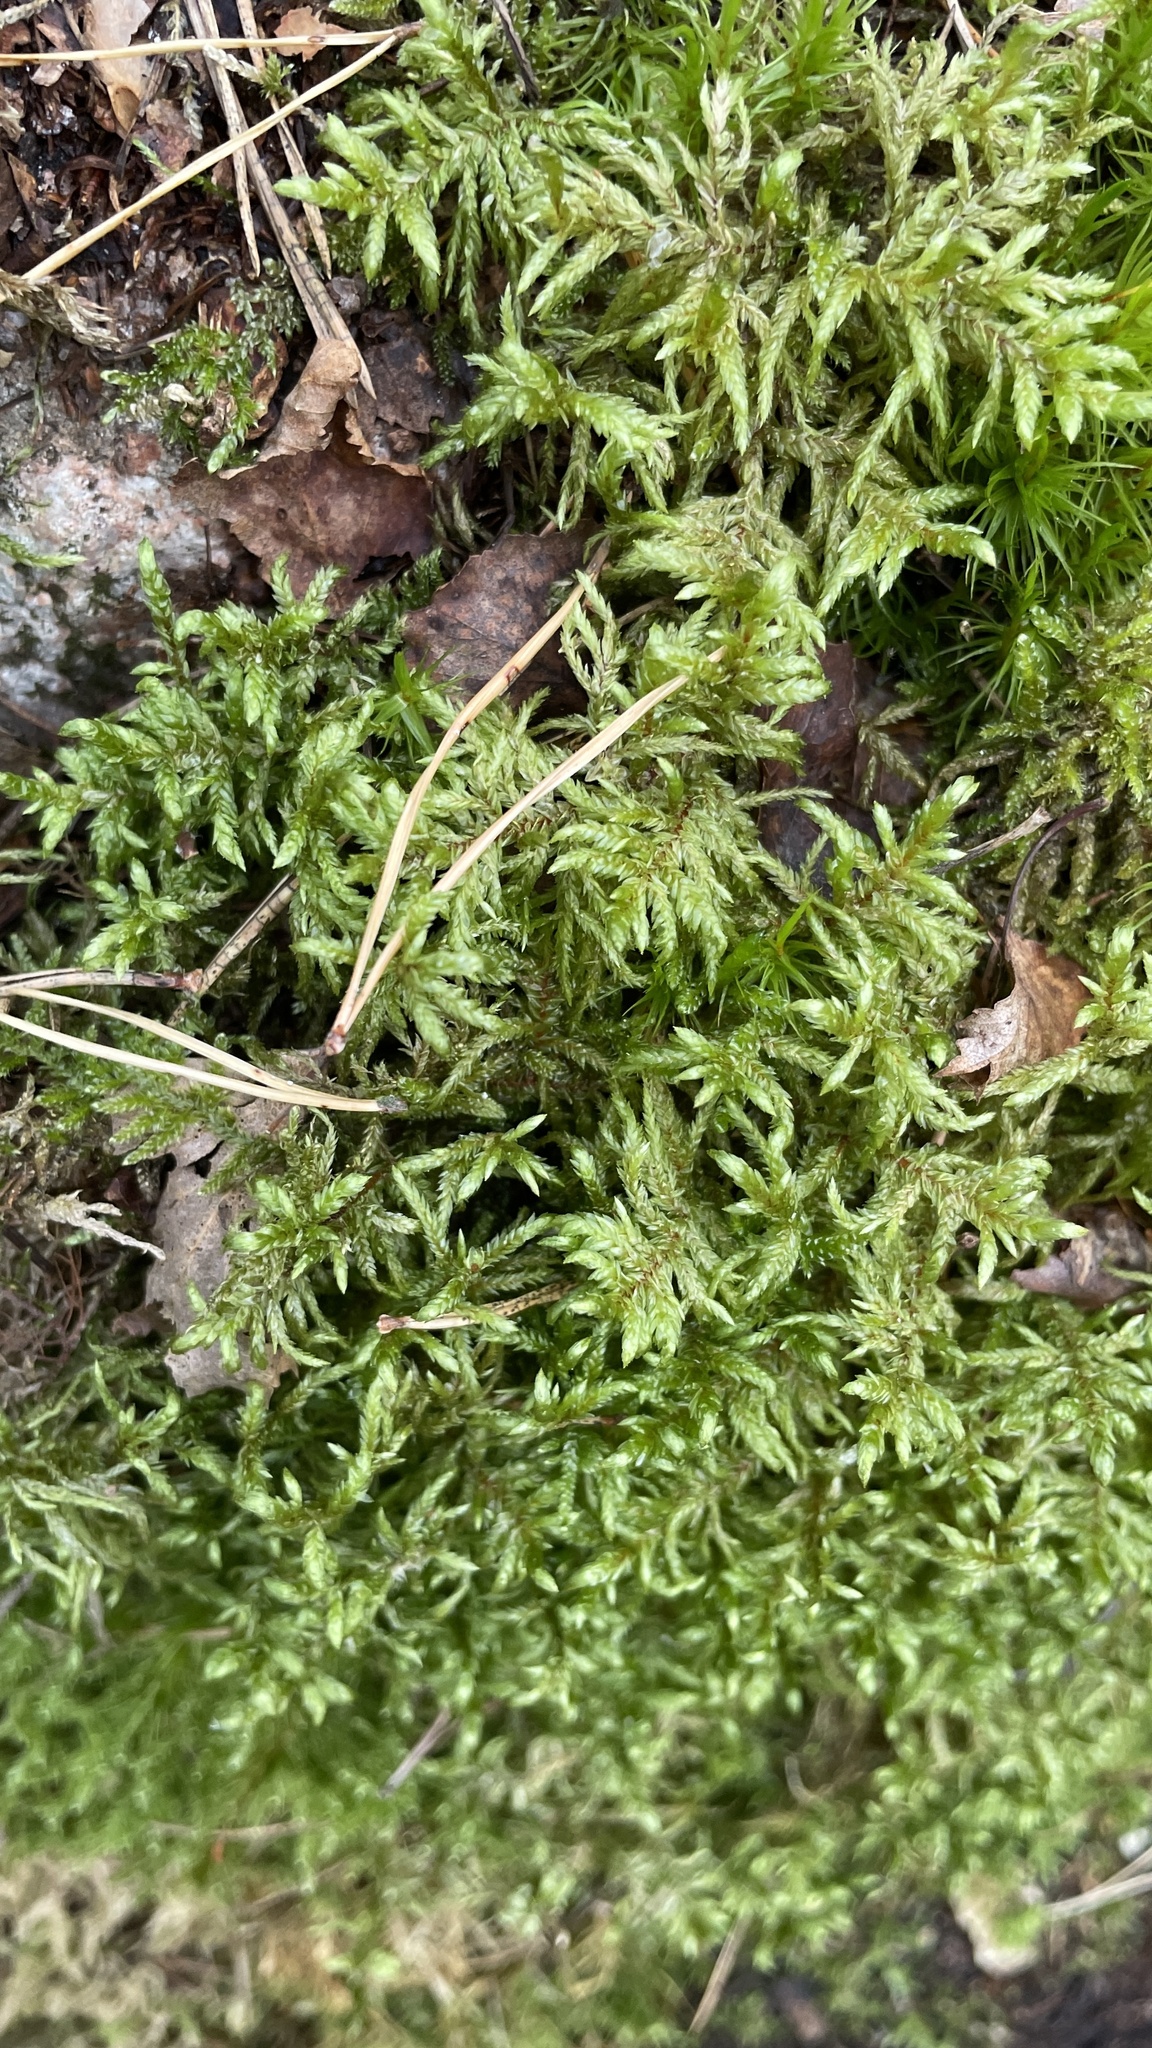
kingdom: Plantae
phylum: Bryophyta
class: Bryopsida
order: Hypnales
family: Hylocomiaceae
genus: Pleurozium
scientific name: Pleurozium schreberi
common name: Red-stemmed feather moss
